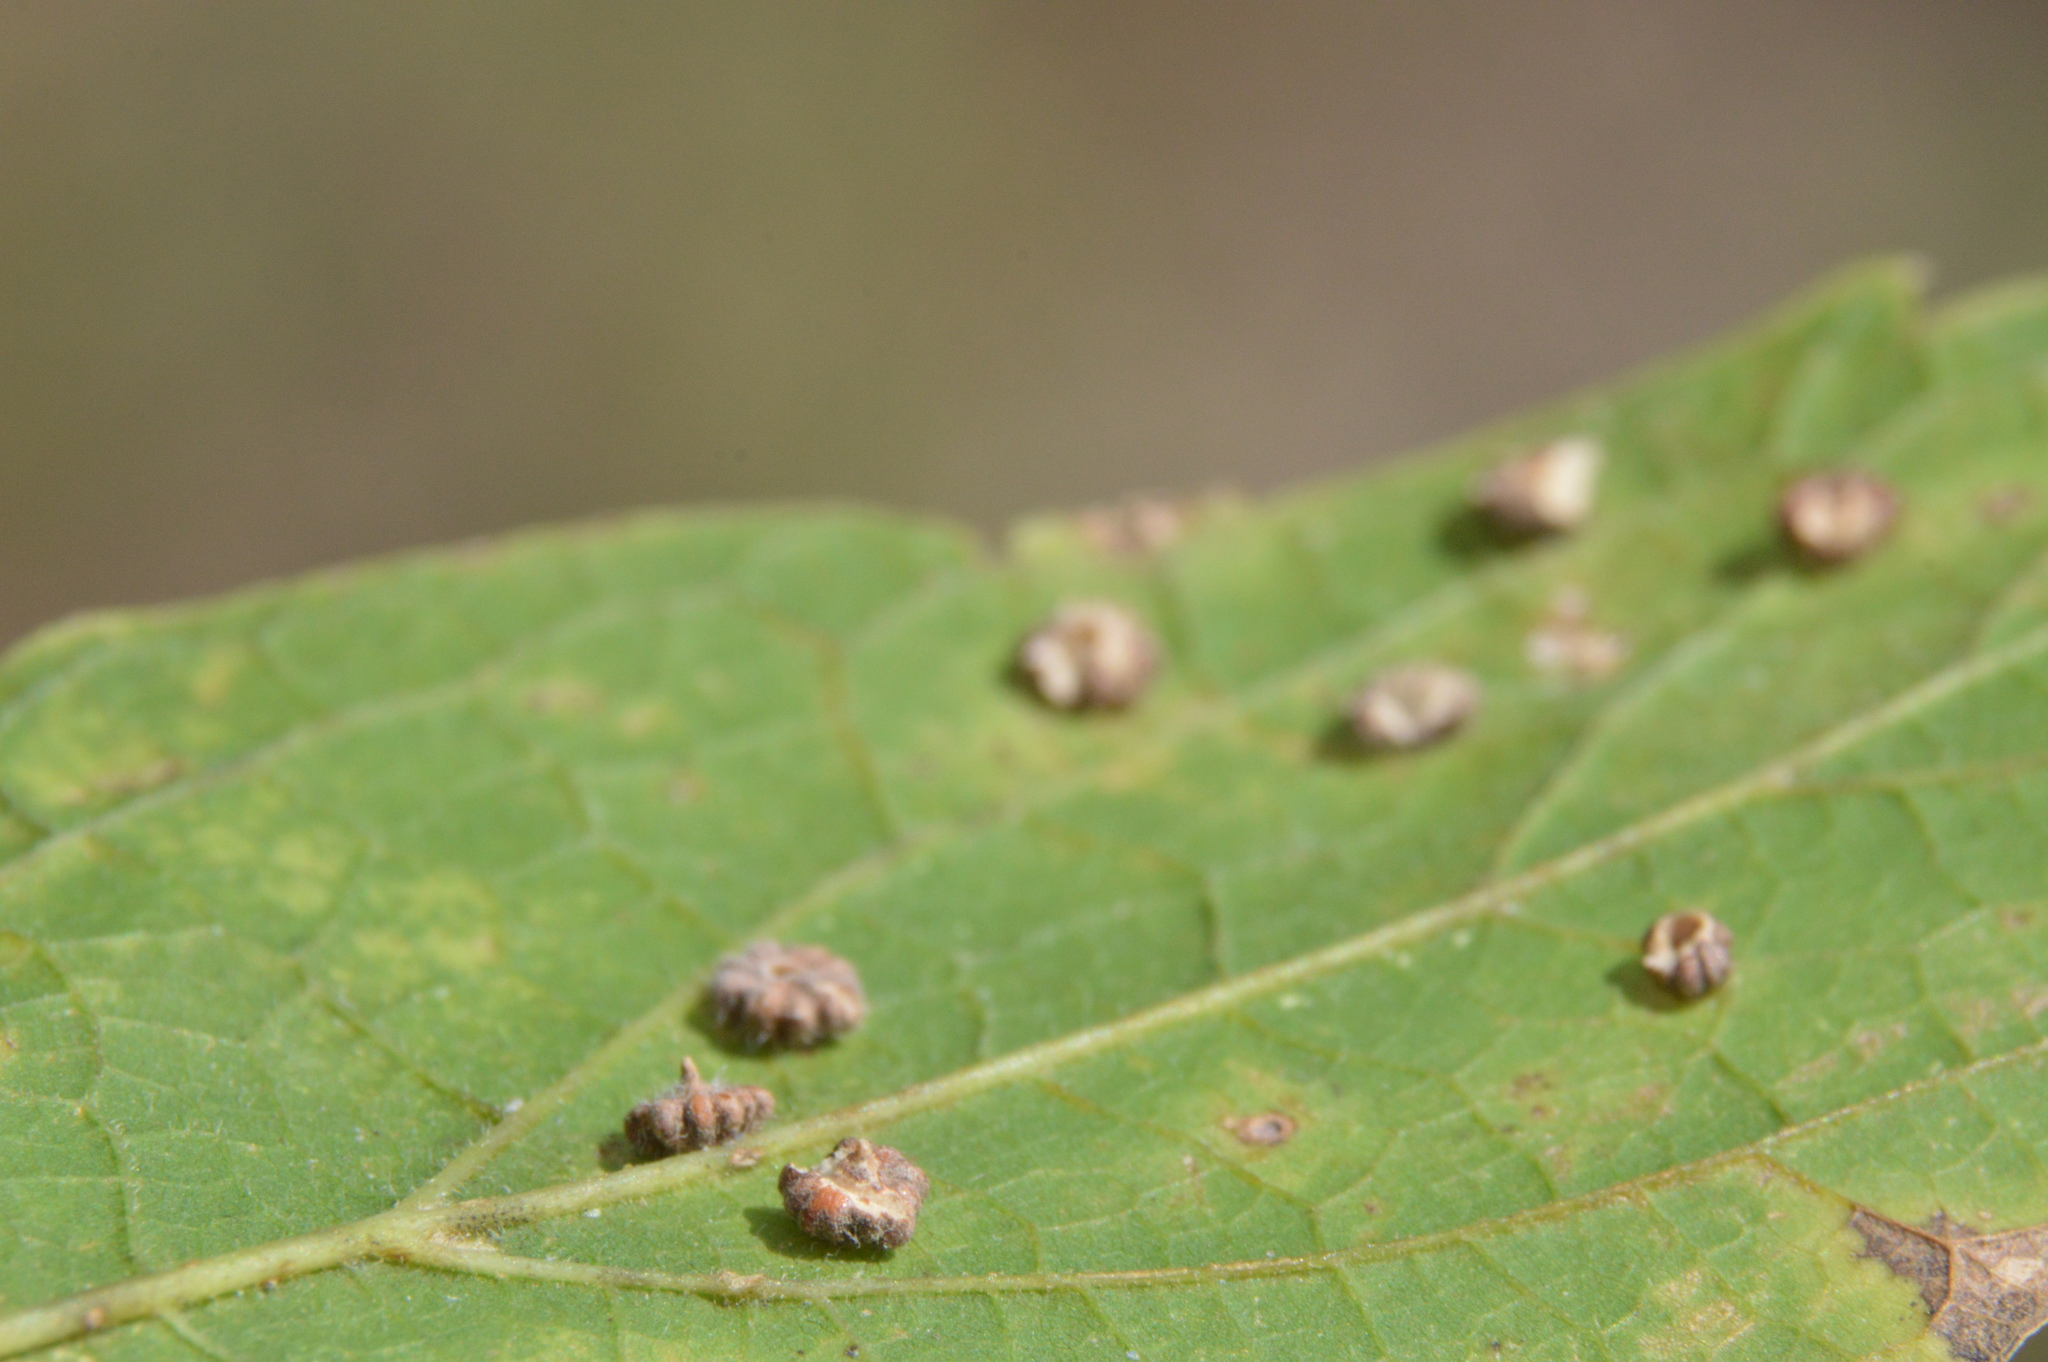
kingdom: Animalia
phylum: Arthropoda
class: Insecta
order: Diptera
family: Cecidomyiidae
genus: Celticecis
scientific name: Celticecis capsularis
